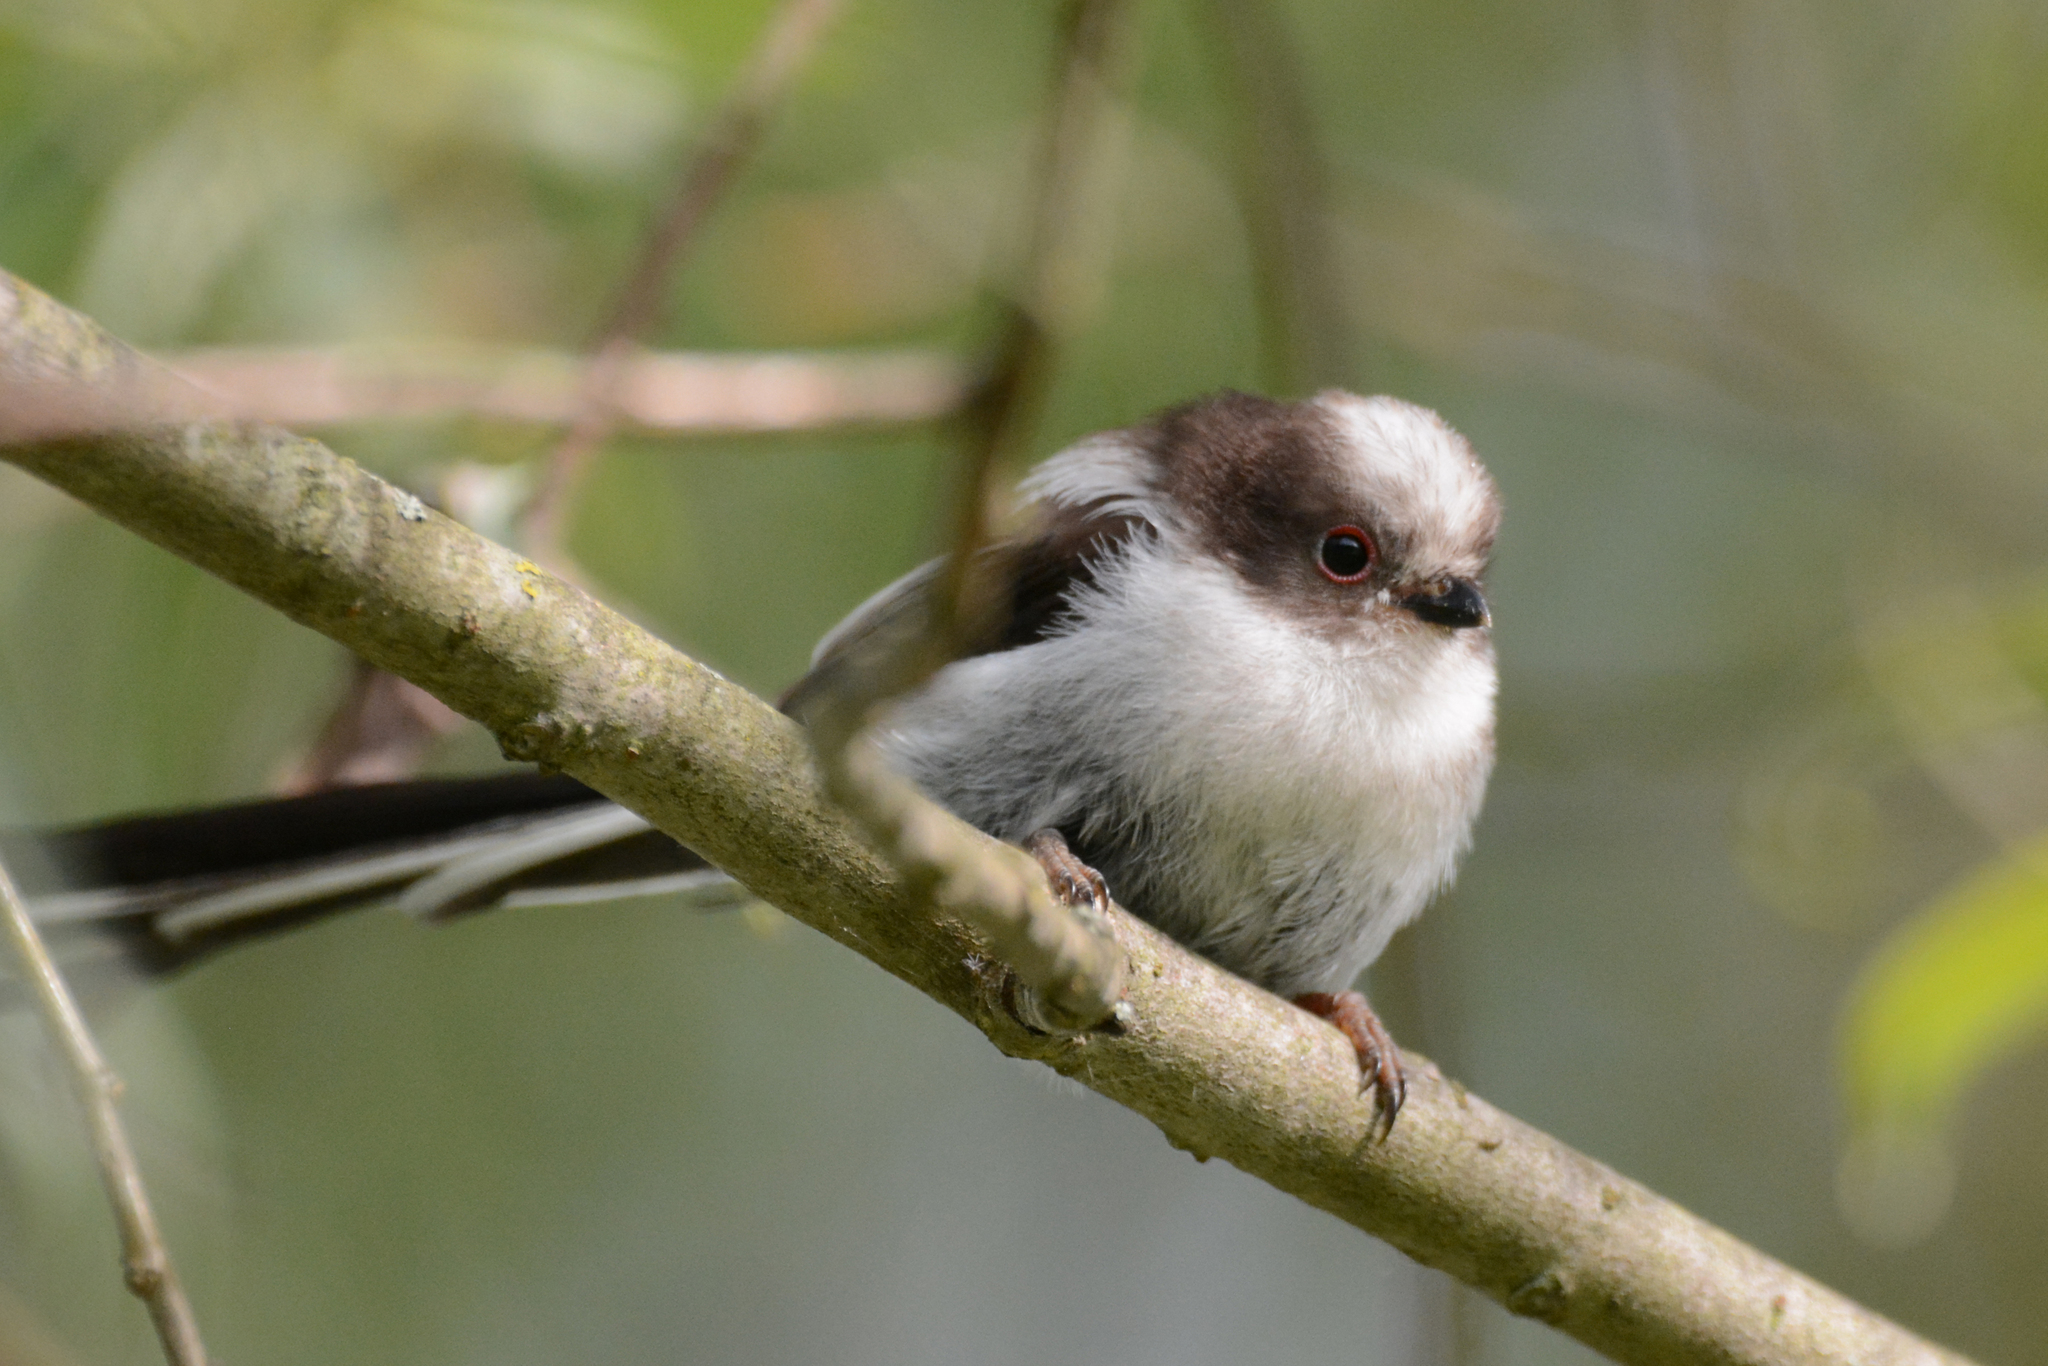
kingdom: Animalia
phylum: Chordata
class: Aves
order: Passeriformes
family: Aegithalidae
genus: Aegithalos
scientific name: Aegithalos caudatus
